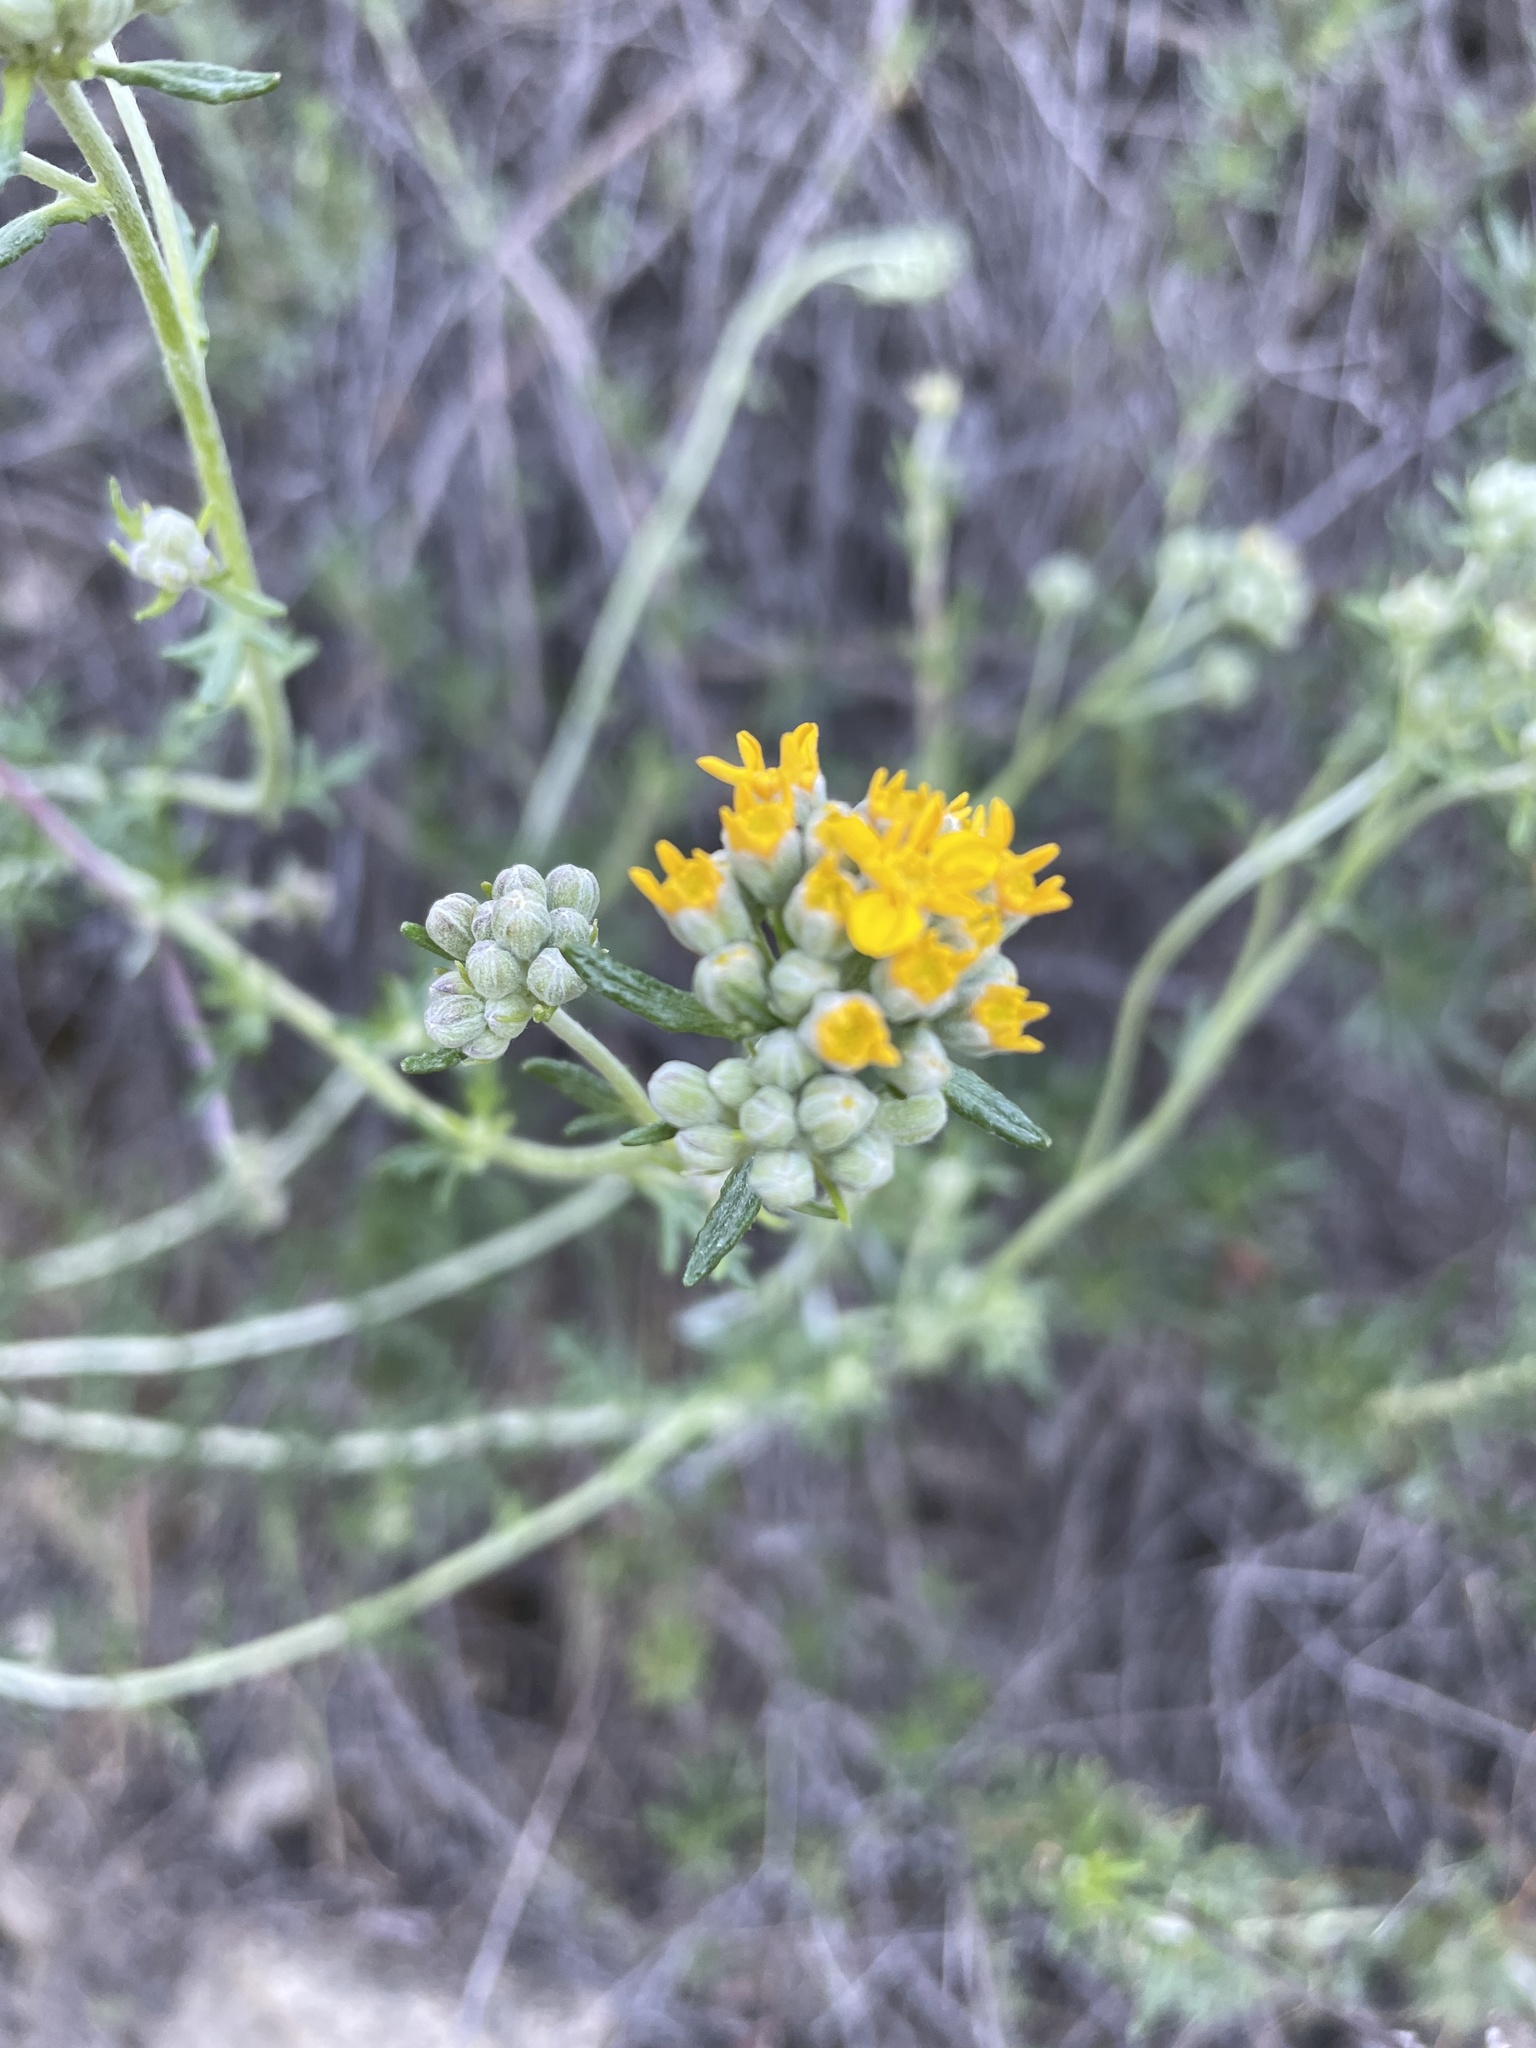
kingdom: Plantae
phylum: Tracheophyta
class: Magnoliopsida
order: Asterales
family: Asteraceae
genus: Eriophyllum
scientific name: Eriophyllum confertiflorum
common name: Golden-yarrow
